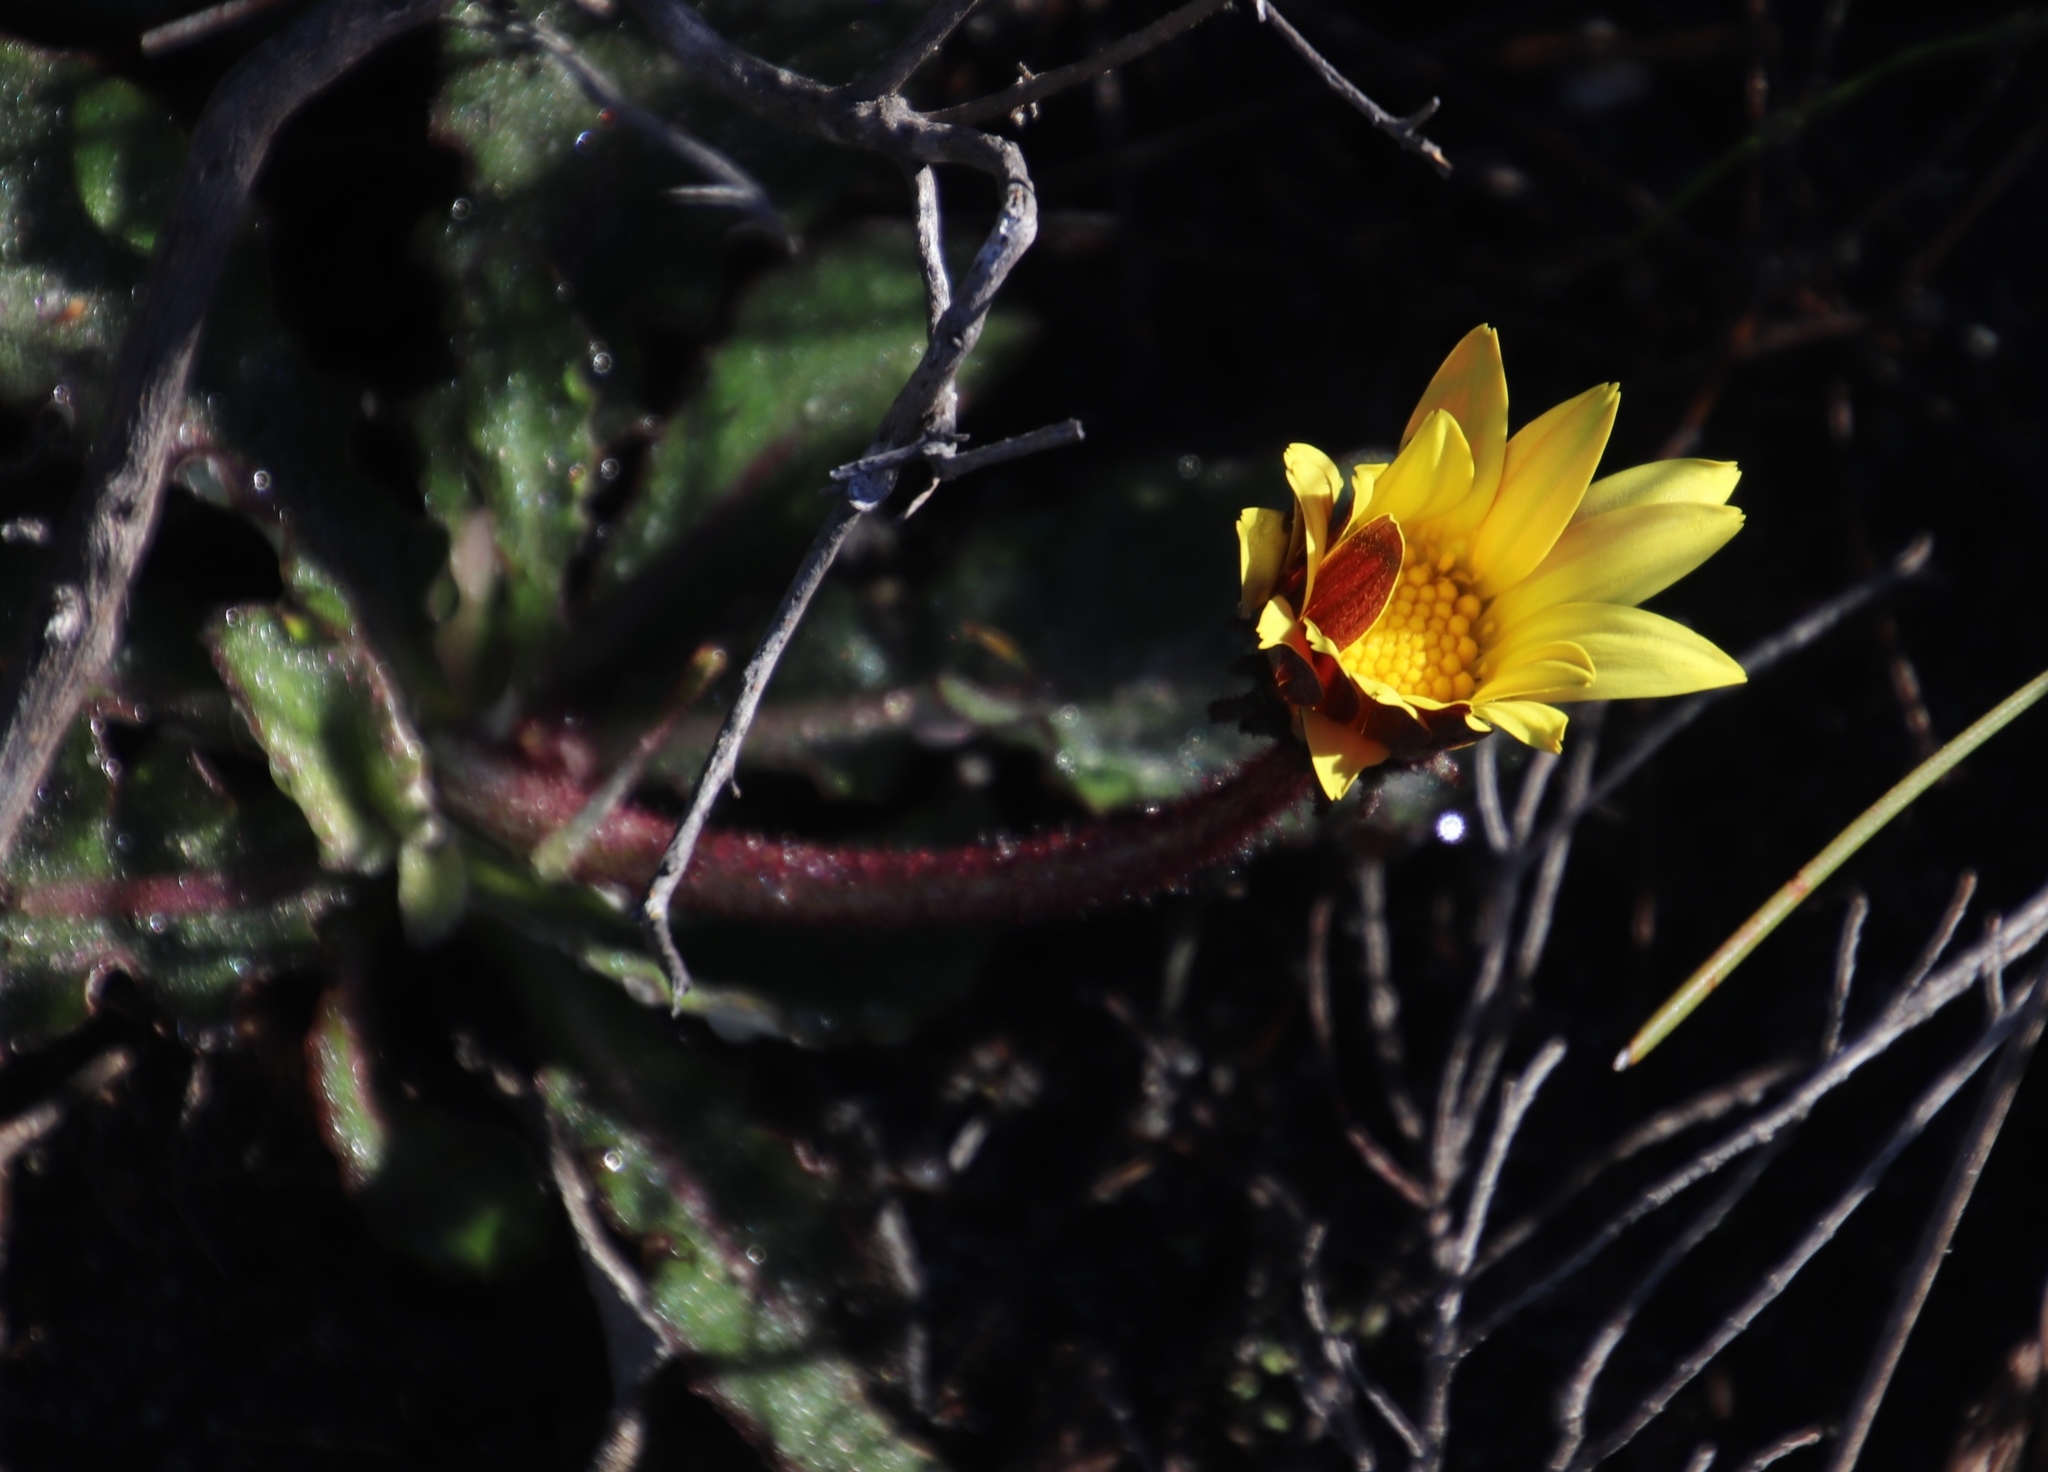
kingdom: Plantae
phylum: Tracheophyta
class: Magnoliopsida
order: Asterales
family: Asteraceae
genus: Haplocarpha
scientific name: Haplocarpha lanata
